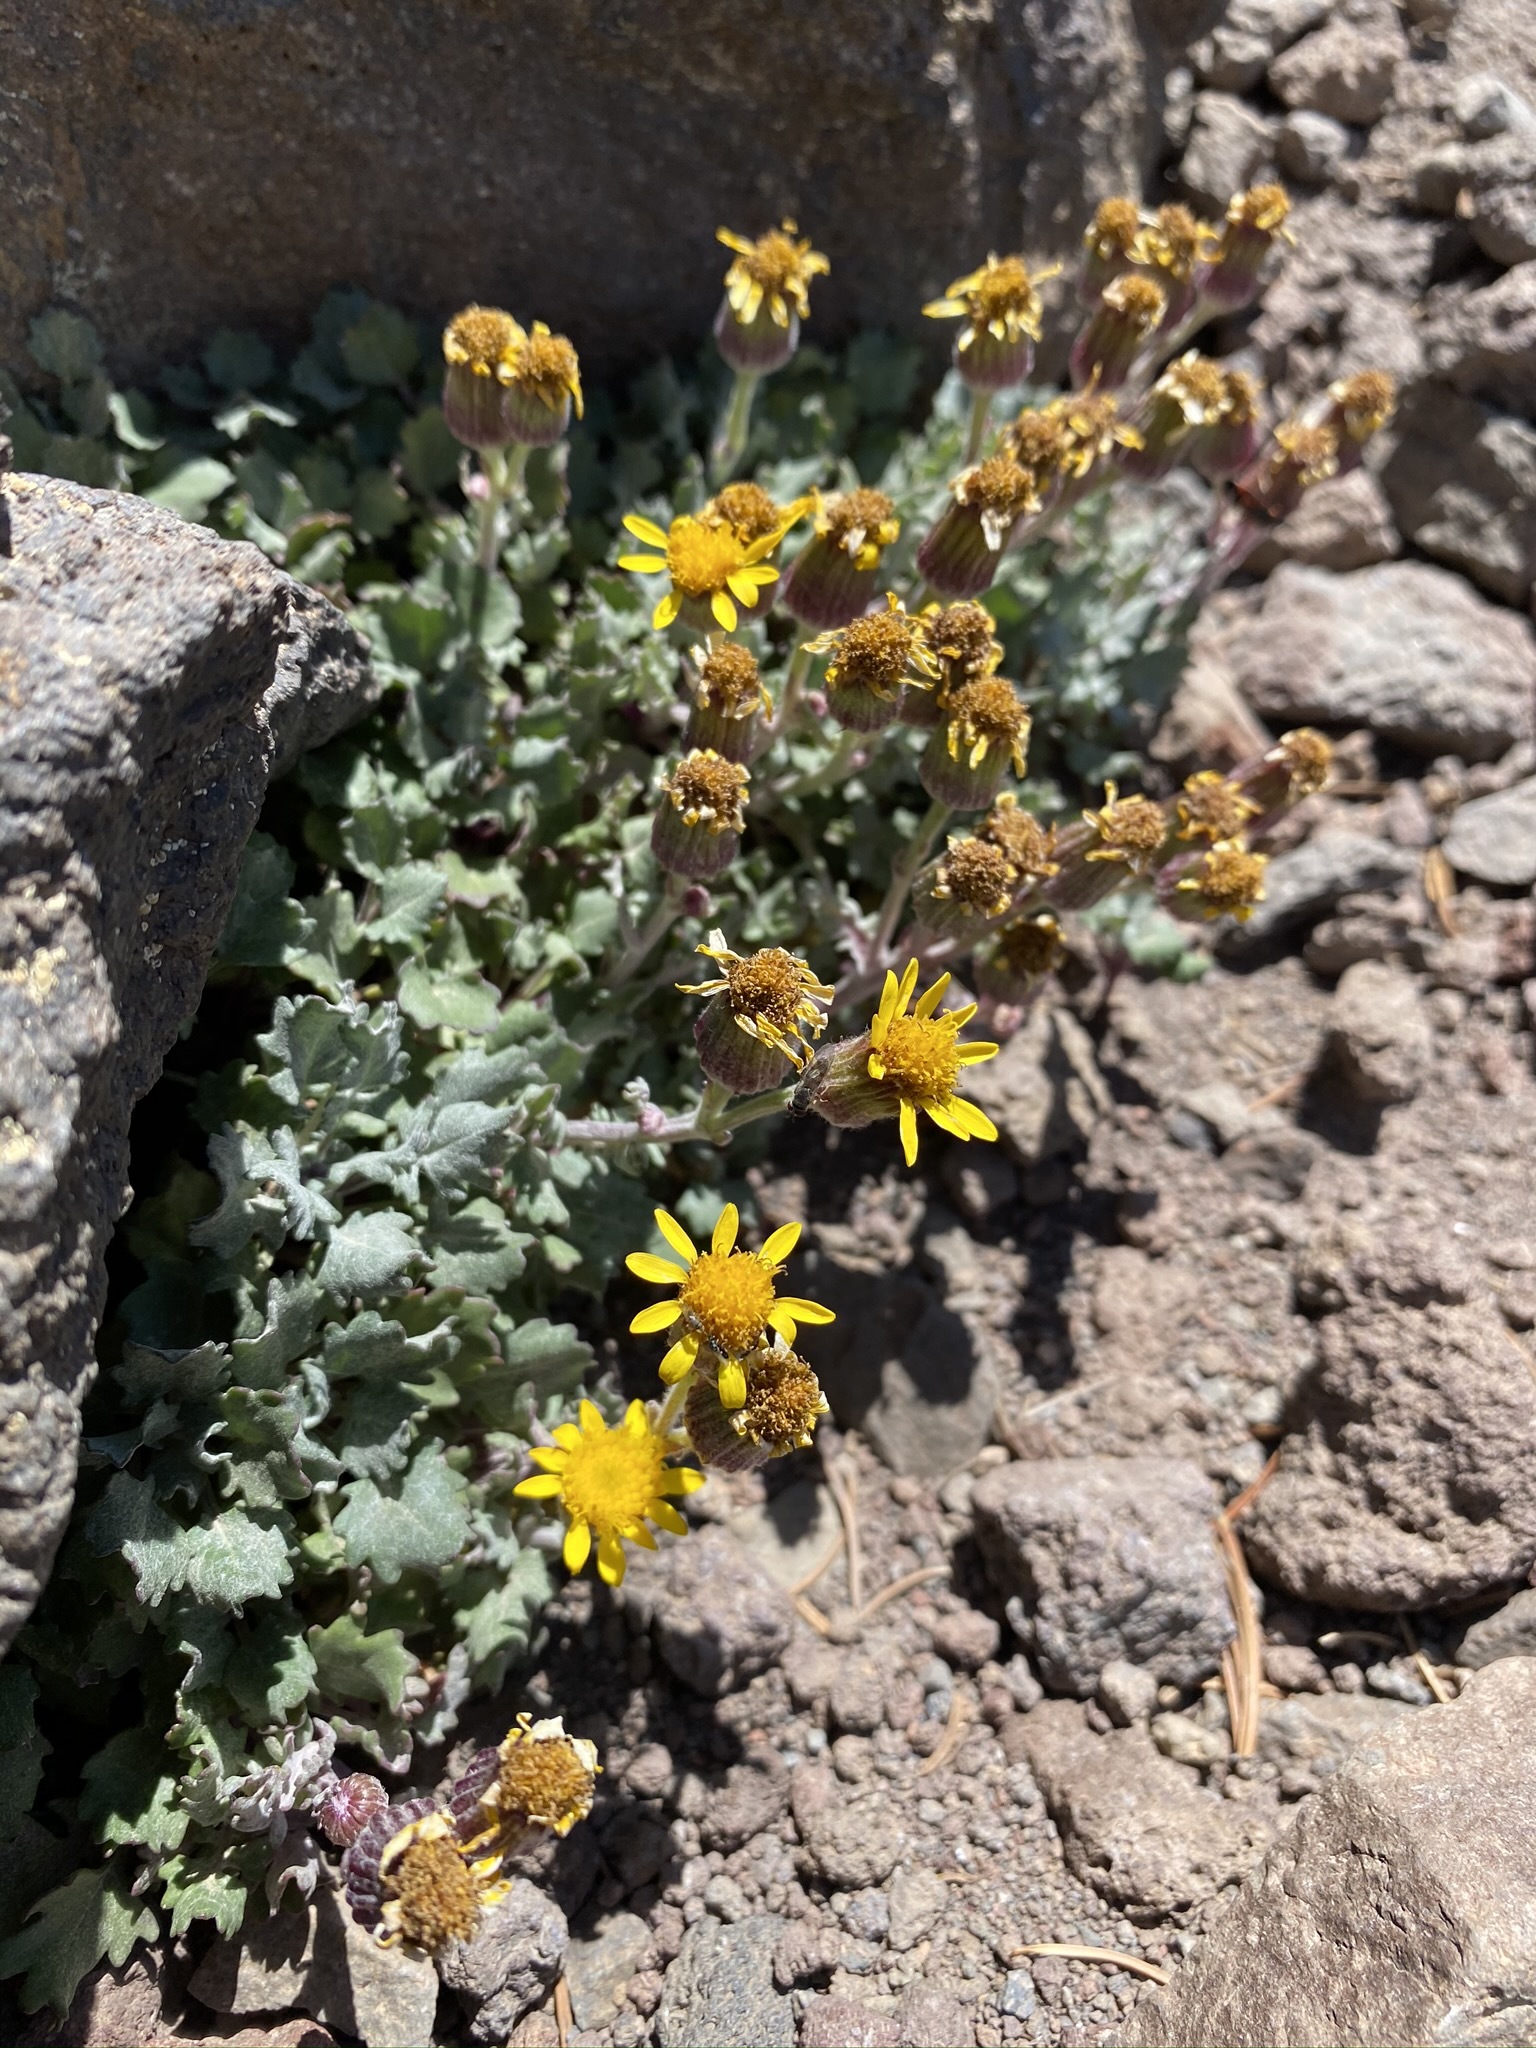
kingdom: Plantae
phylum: Tracheophyta
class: Magnoliopsida
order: Asterales
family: Asteraceae
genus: Packera
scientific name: Packera franciscana
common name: San francisco peaks groundsel
